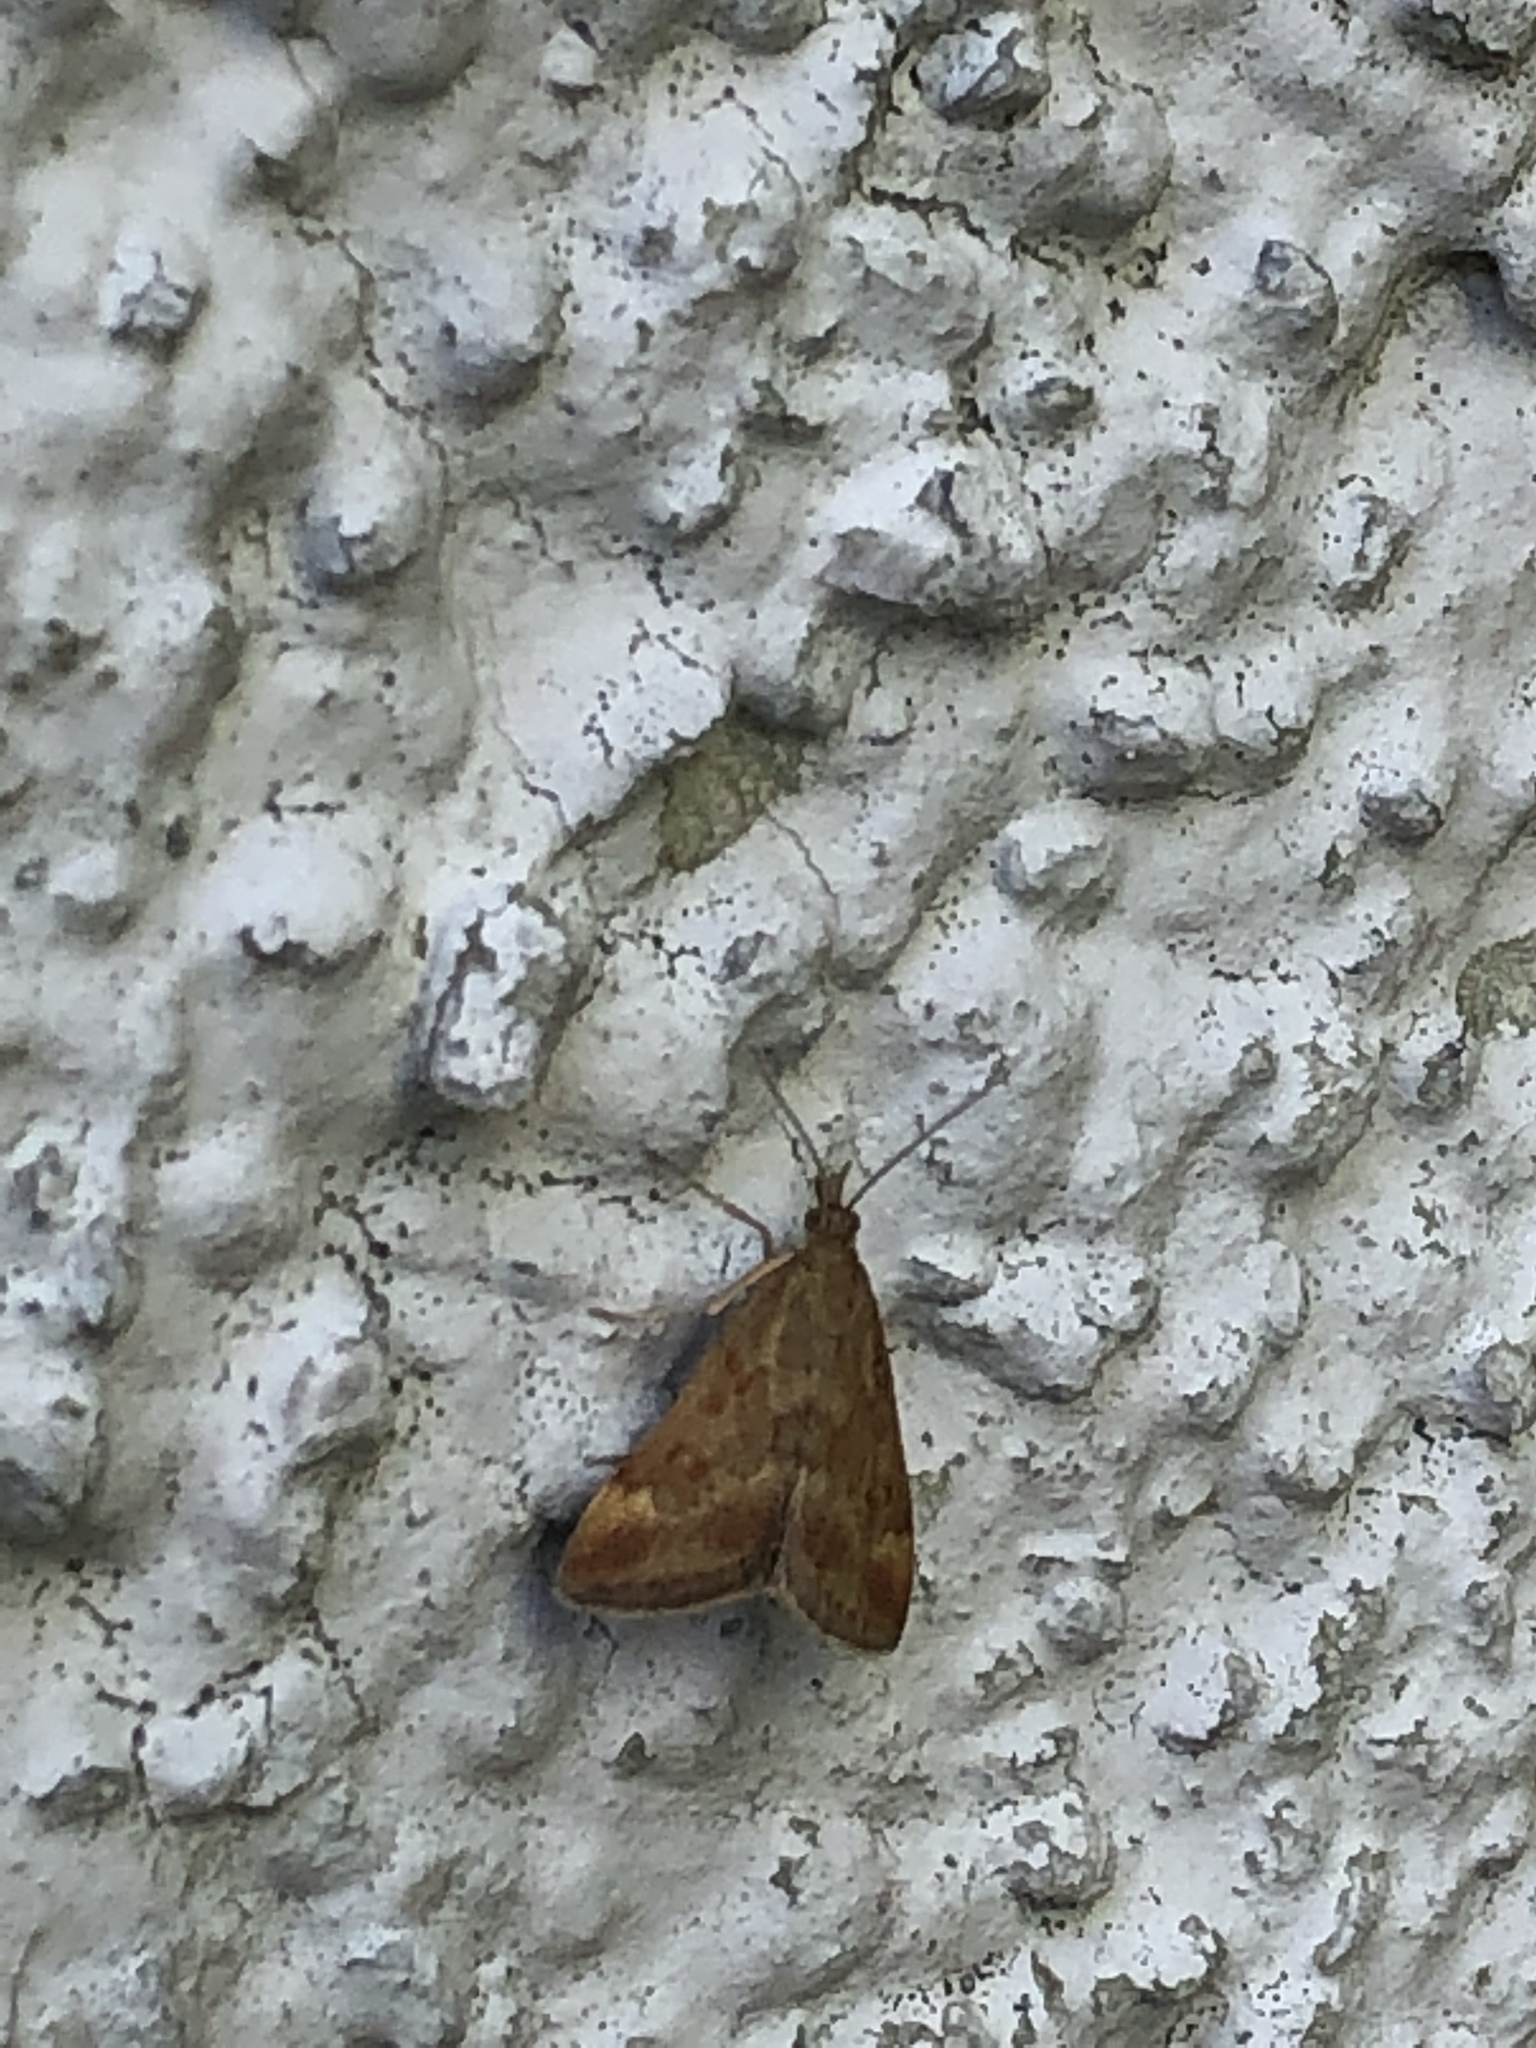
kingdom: Animalia
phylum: Arthropoda
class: Insecta
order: Lepidoptera
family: Crambidae
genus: Pyrausta
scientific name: Pyrausta despicata
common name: Straw-barred pearl
